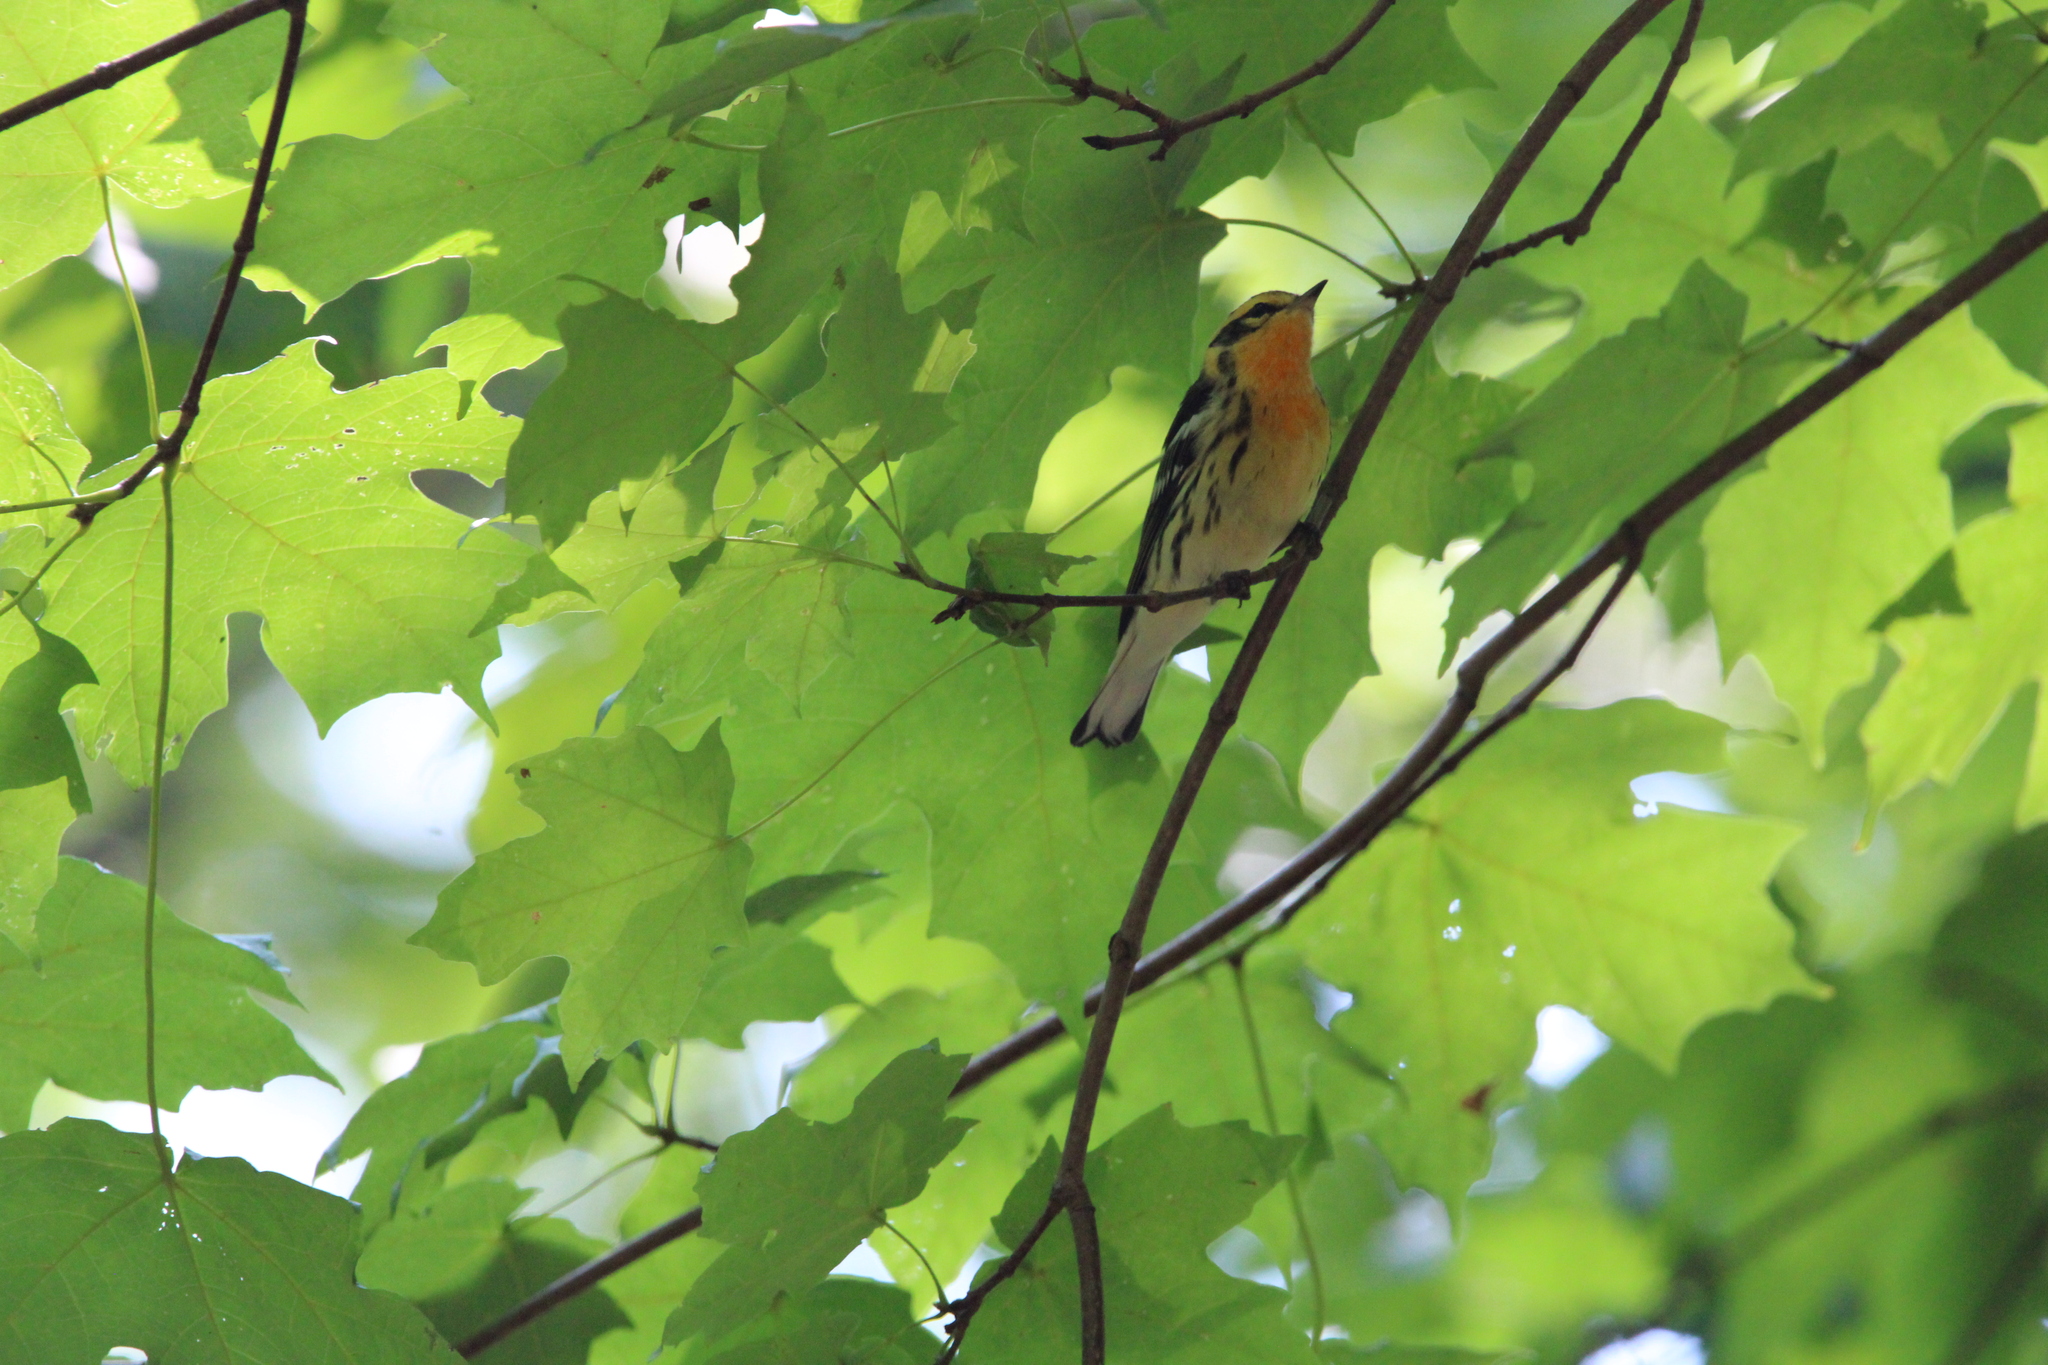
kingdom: Animalia
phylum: Chordata
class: Aves
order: Passeriformes
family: Parulidae
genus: Setophaga
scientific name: Setophaga fusca
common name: Blackburnian warbler
